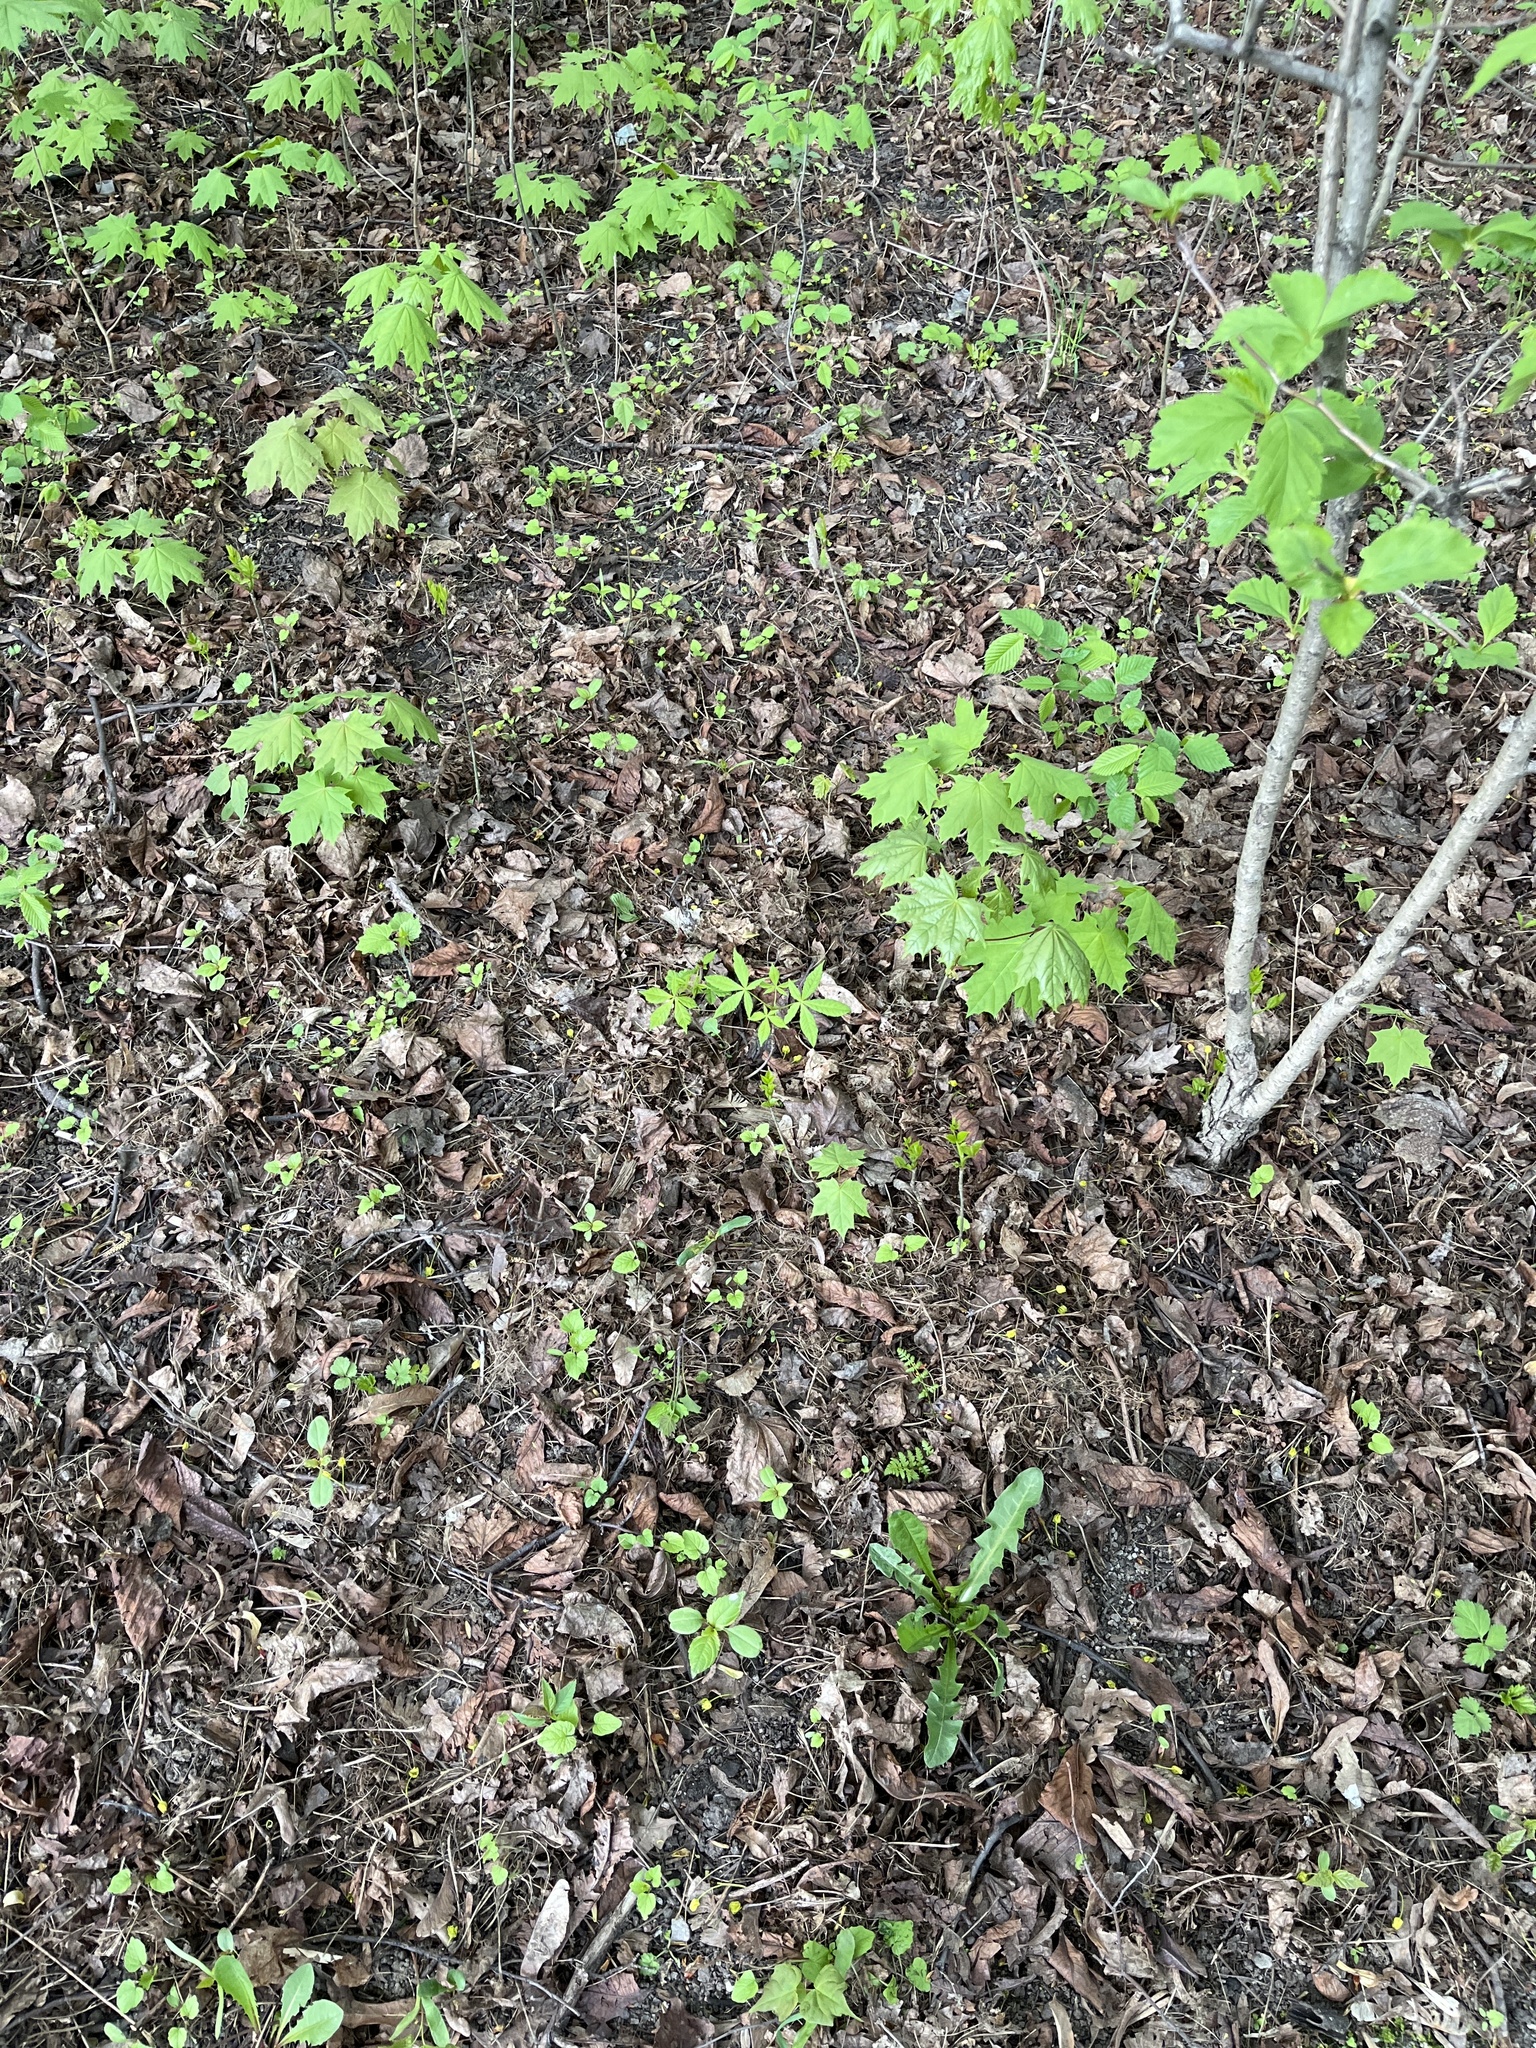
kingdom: Plantae
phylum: Tracheophyta
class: Magnoliopsida
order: Sapindales
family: Sapindaceae
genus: Aesculus
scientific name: Aesculus hippocastanum
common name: Horse-chestnut
